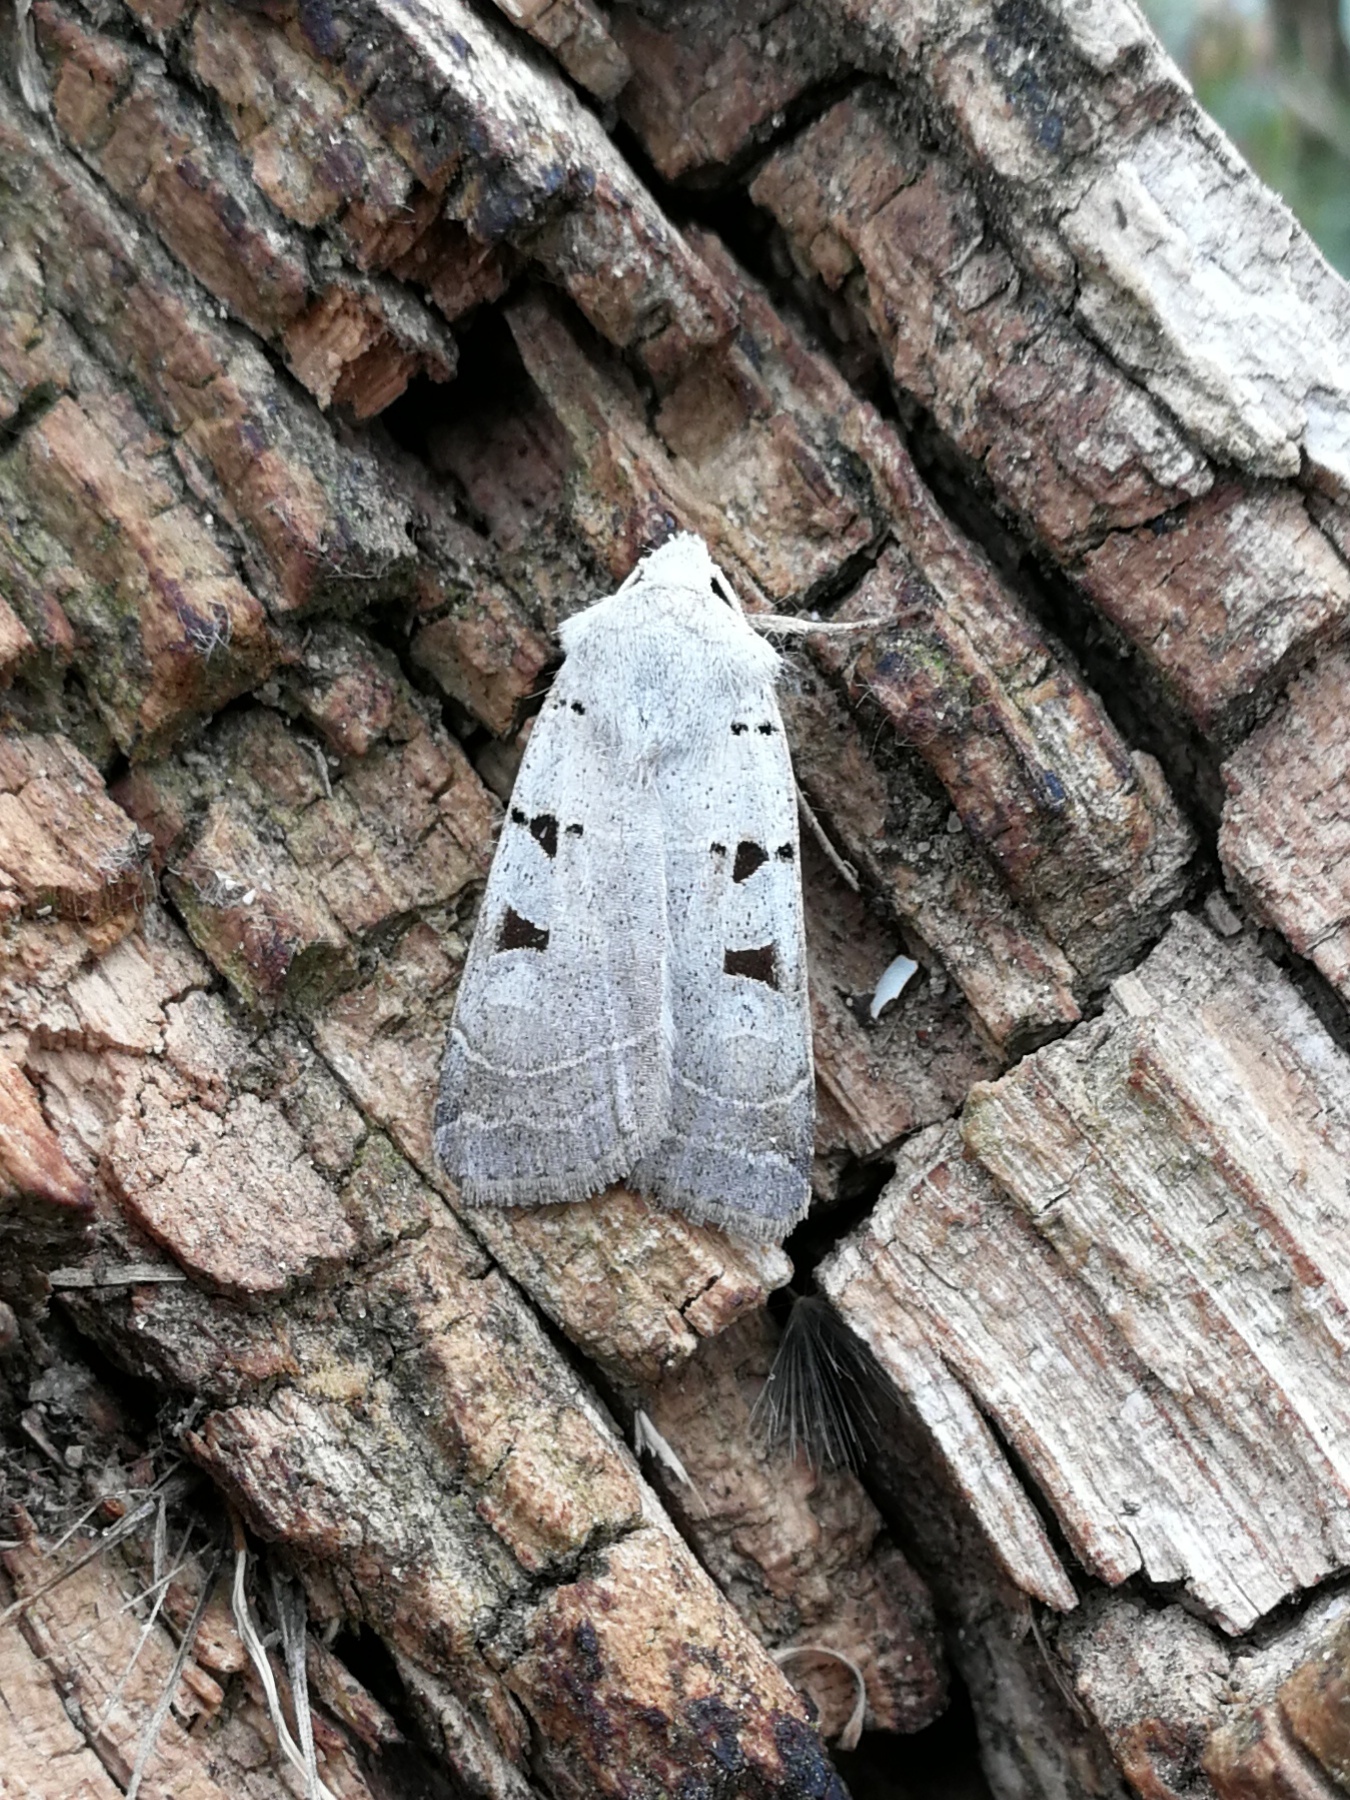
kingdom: Animalia
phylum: Arthropoda
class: Insecta
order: Lepidoptera
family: Noctuidae
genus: Eugnorisma
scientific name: Eugnorisma glareosa
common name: Autumnal rustic
